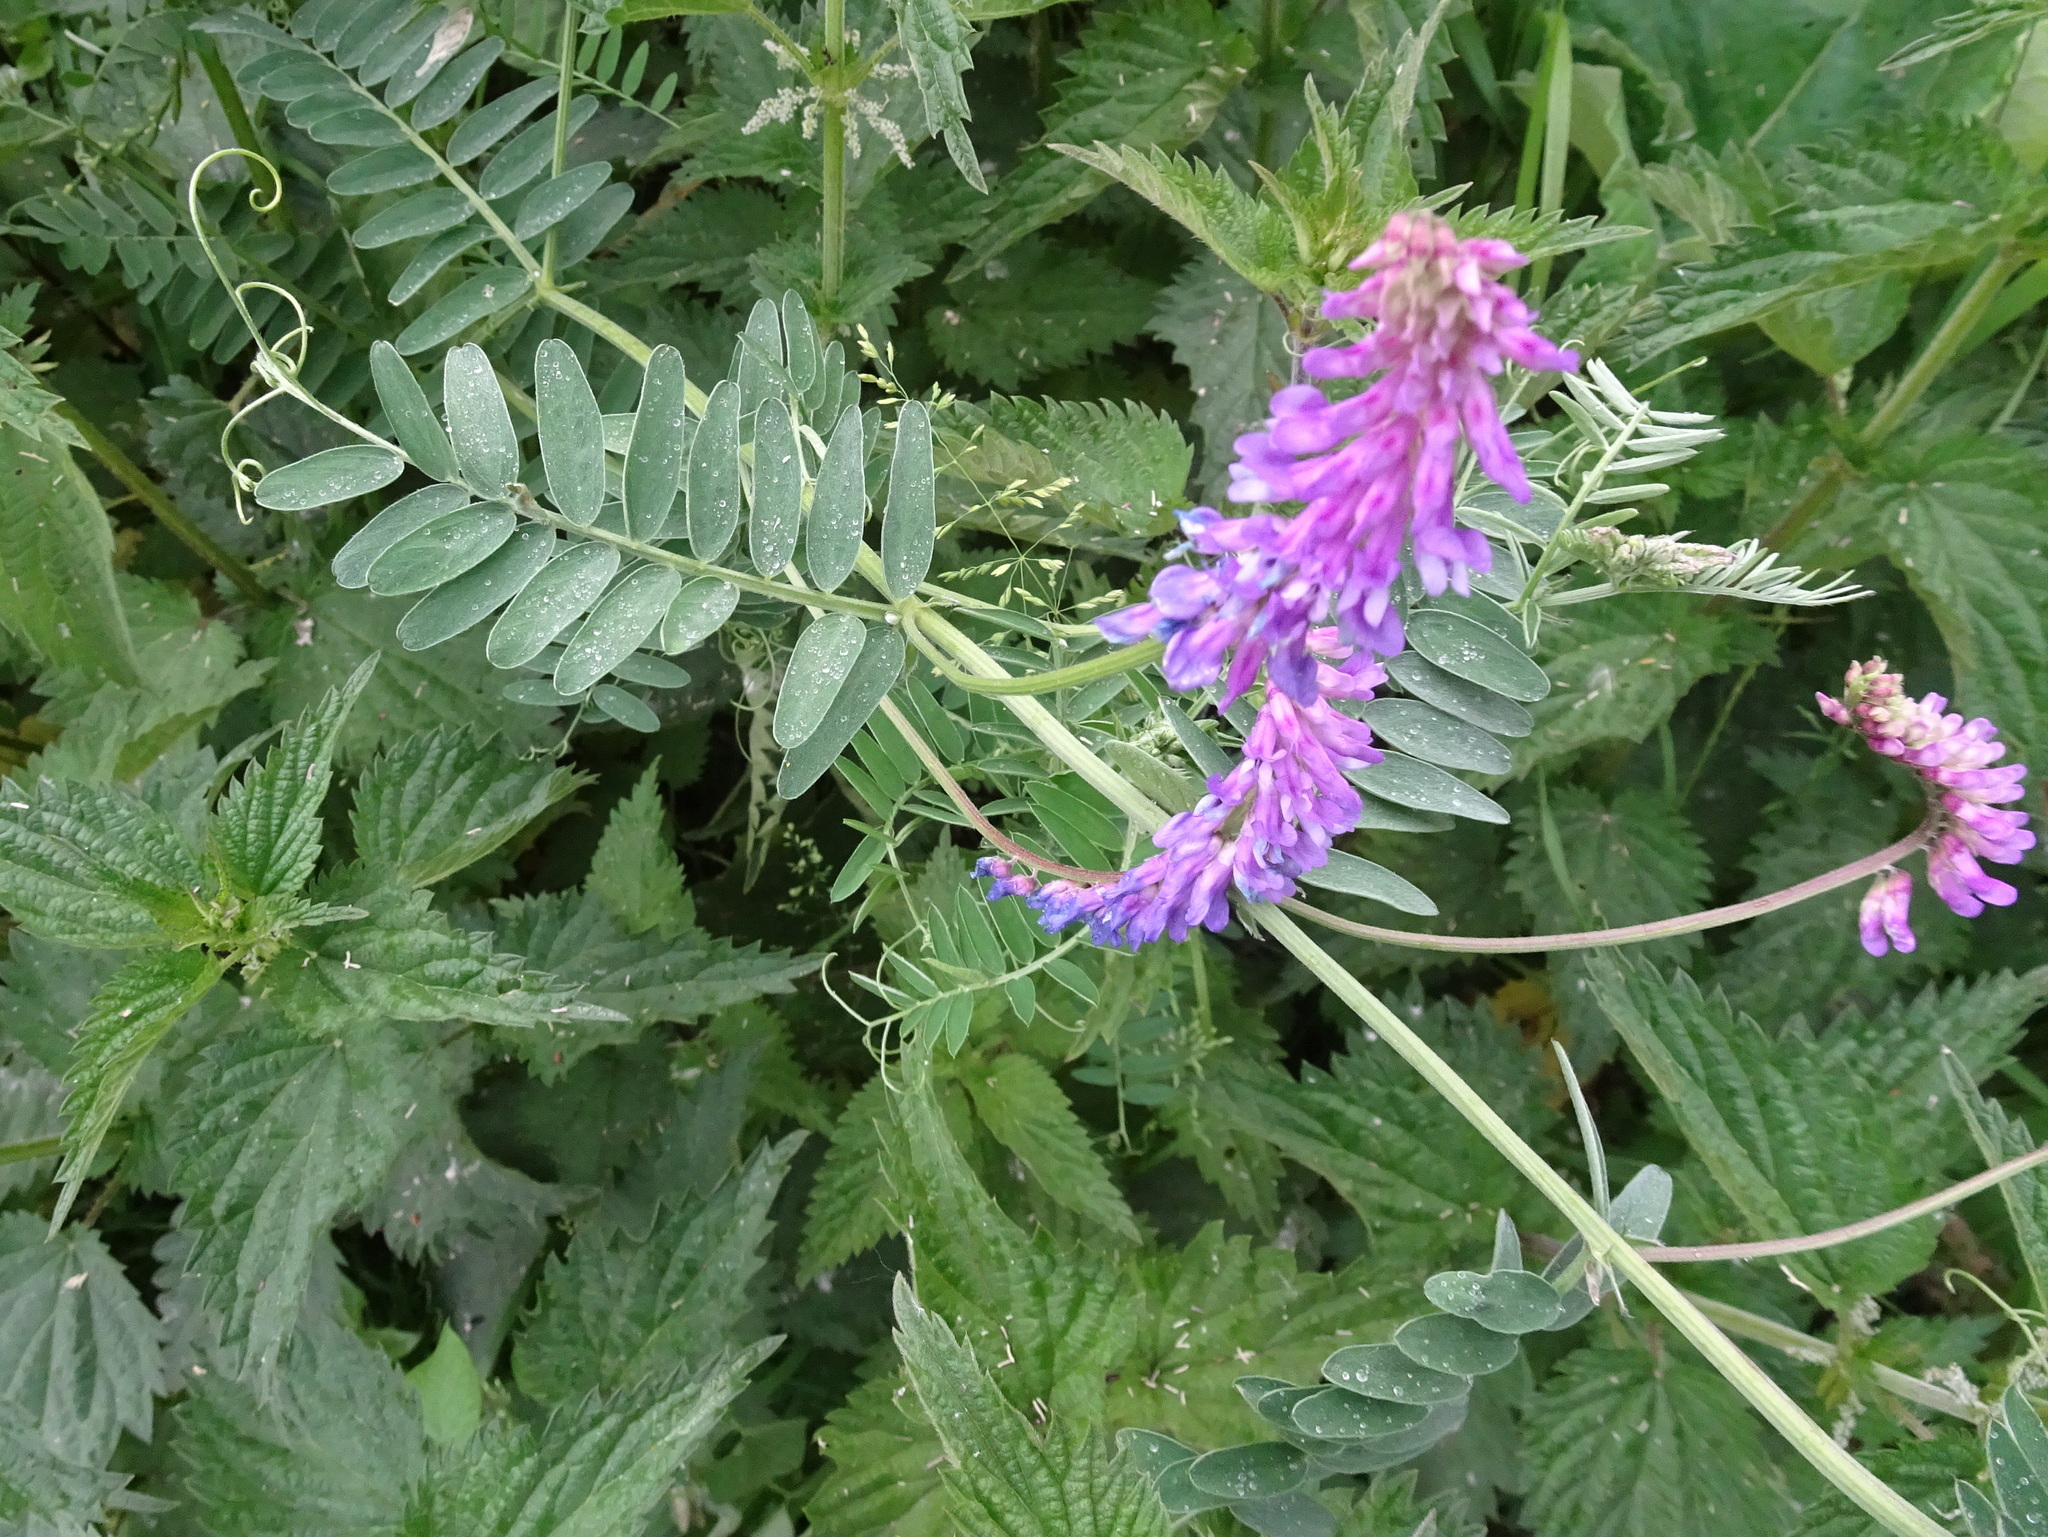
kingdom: Plantae
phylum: Tracheophyta
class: Magnoliopsida
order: Fabales
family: Fabaceae
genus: Vicia
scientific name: Vicia cracca
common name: Bird vetch
